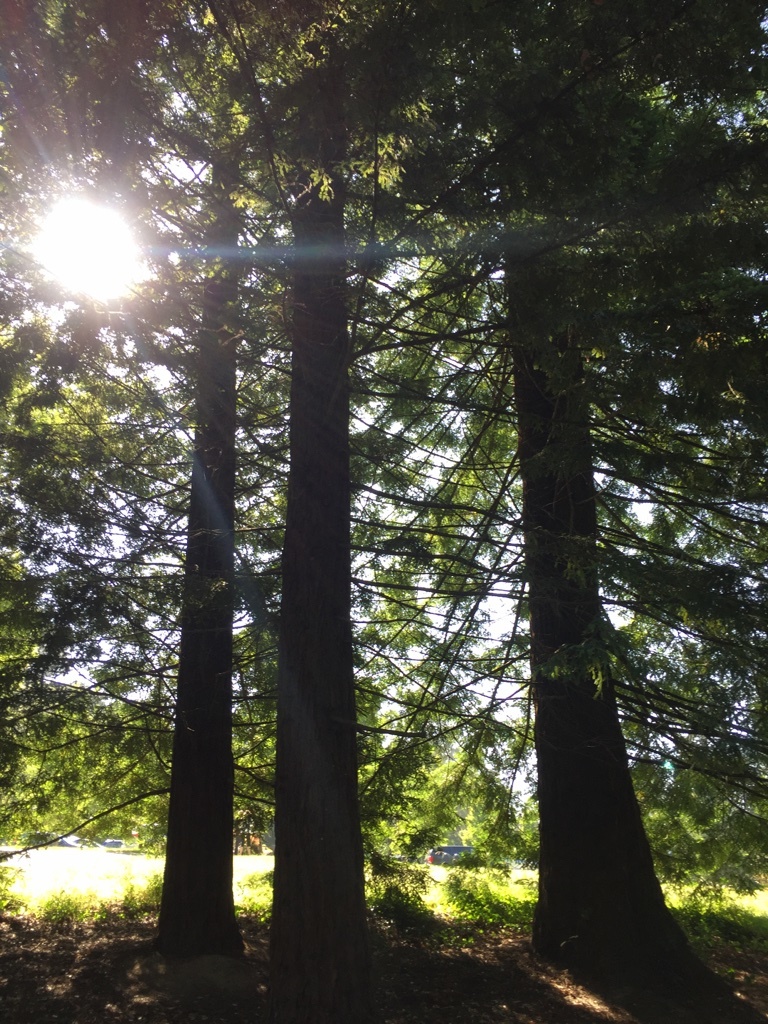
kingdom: Plantae
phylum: Tracheophyta
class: Pinopsida
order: Pinales
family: Cupressaceae
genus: Sequoia
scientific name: Sequoia sempervirens
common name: Coast redwood
